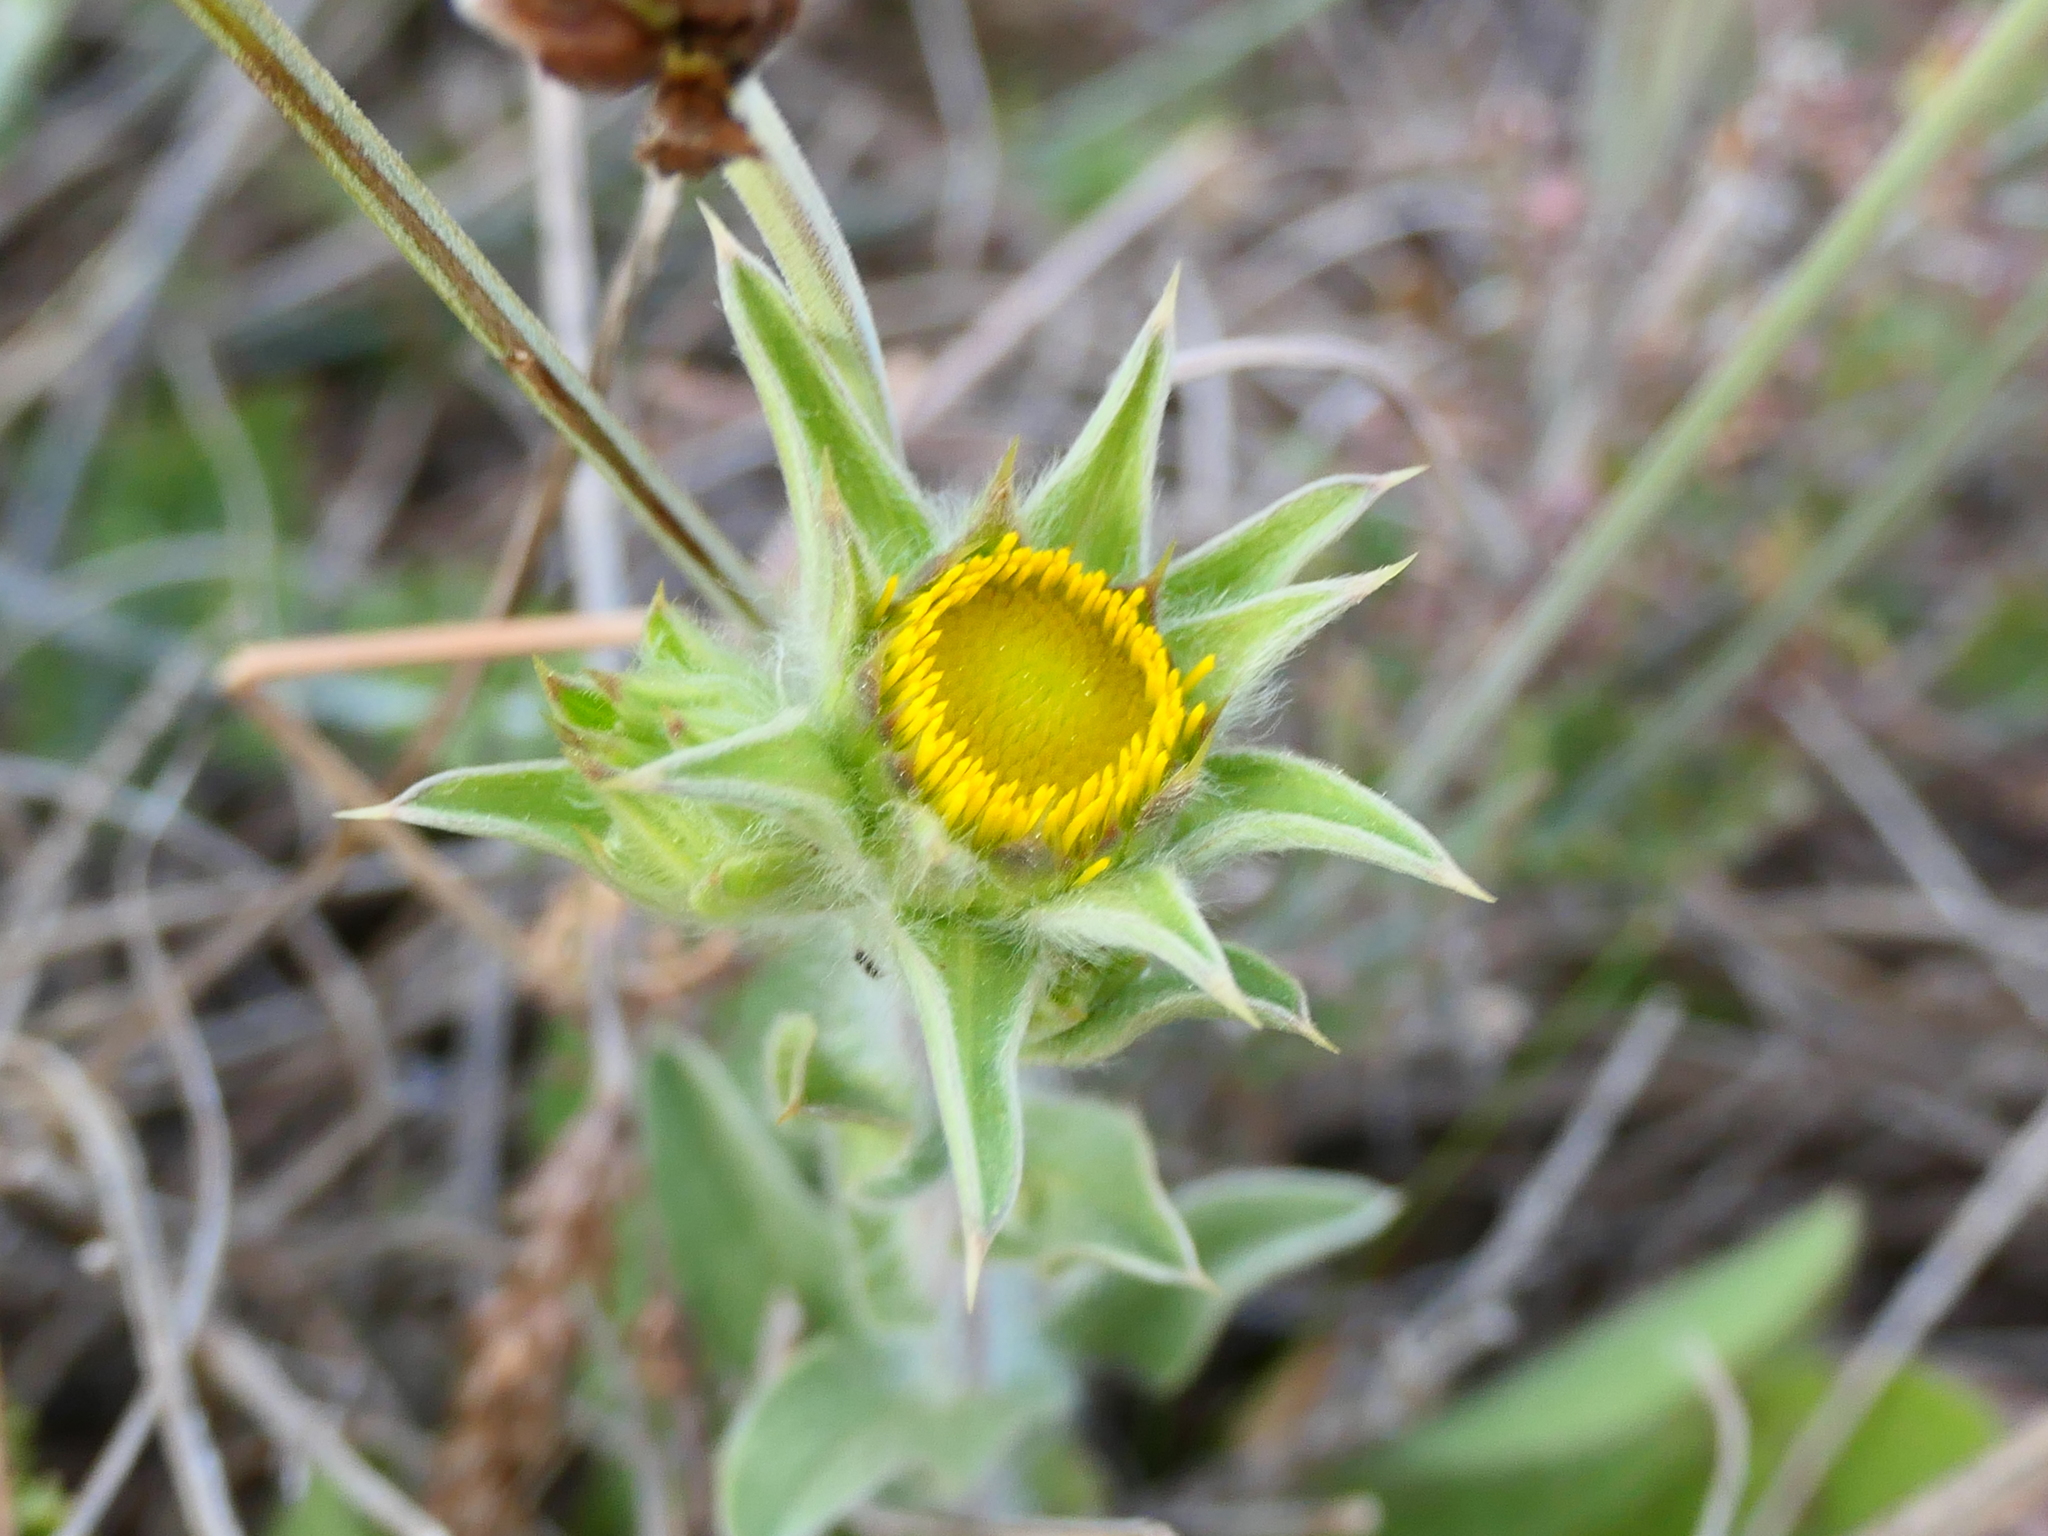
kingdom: Plantae
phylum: Tracheophyta
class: Magnoliopsida
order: Asterales
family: Asteraceae
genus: Pallenis
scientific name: Pallenis spinosa
